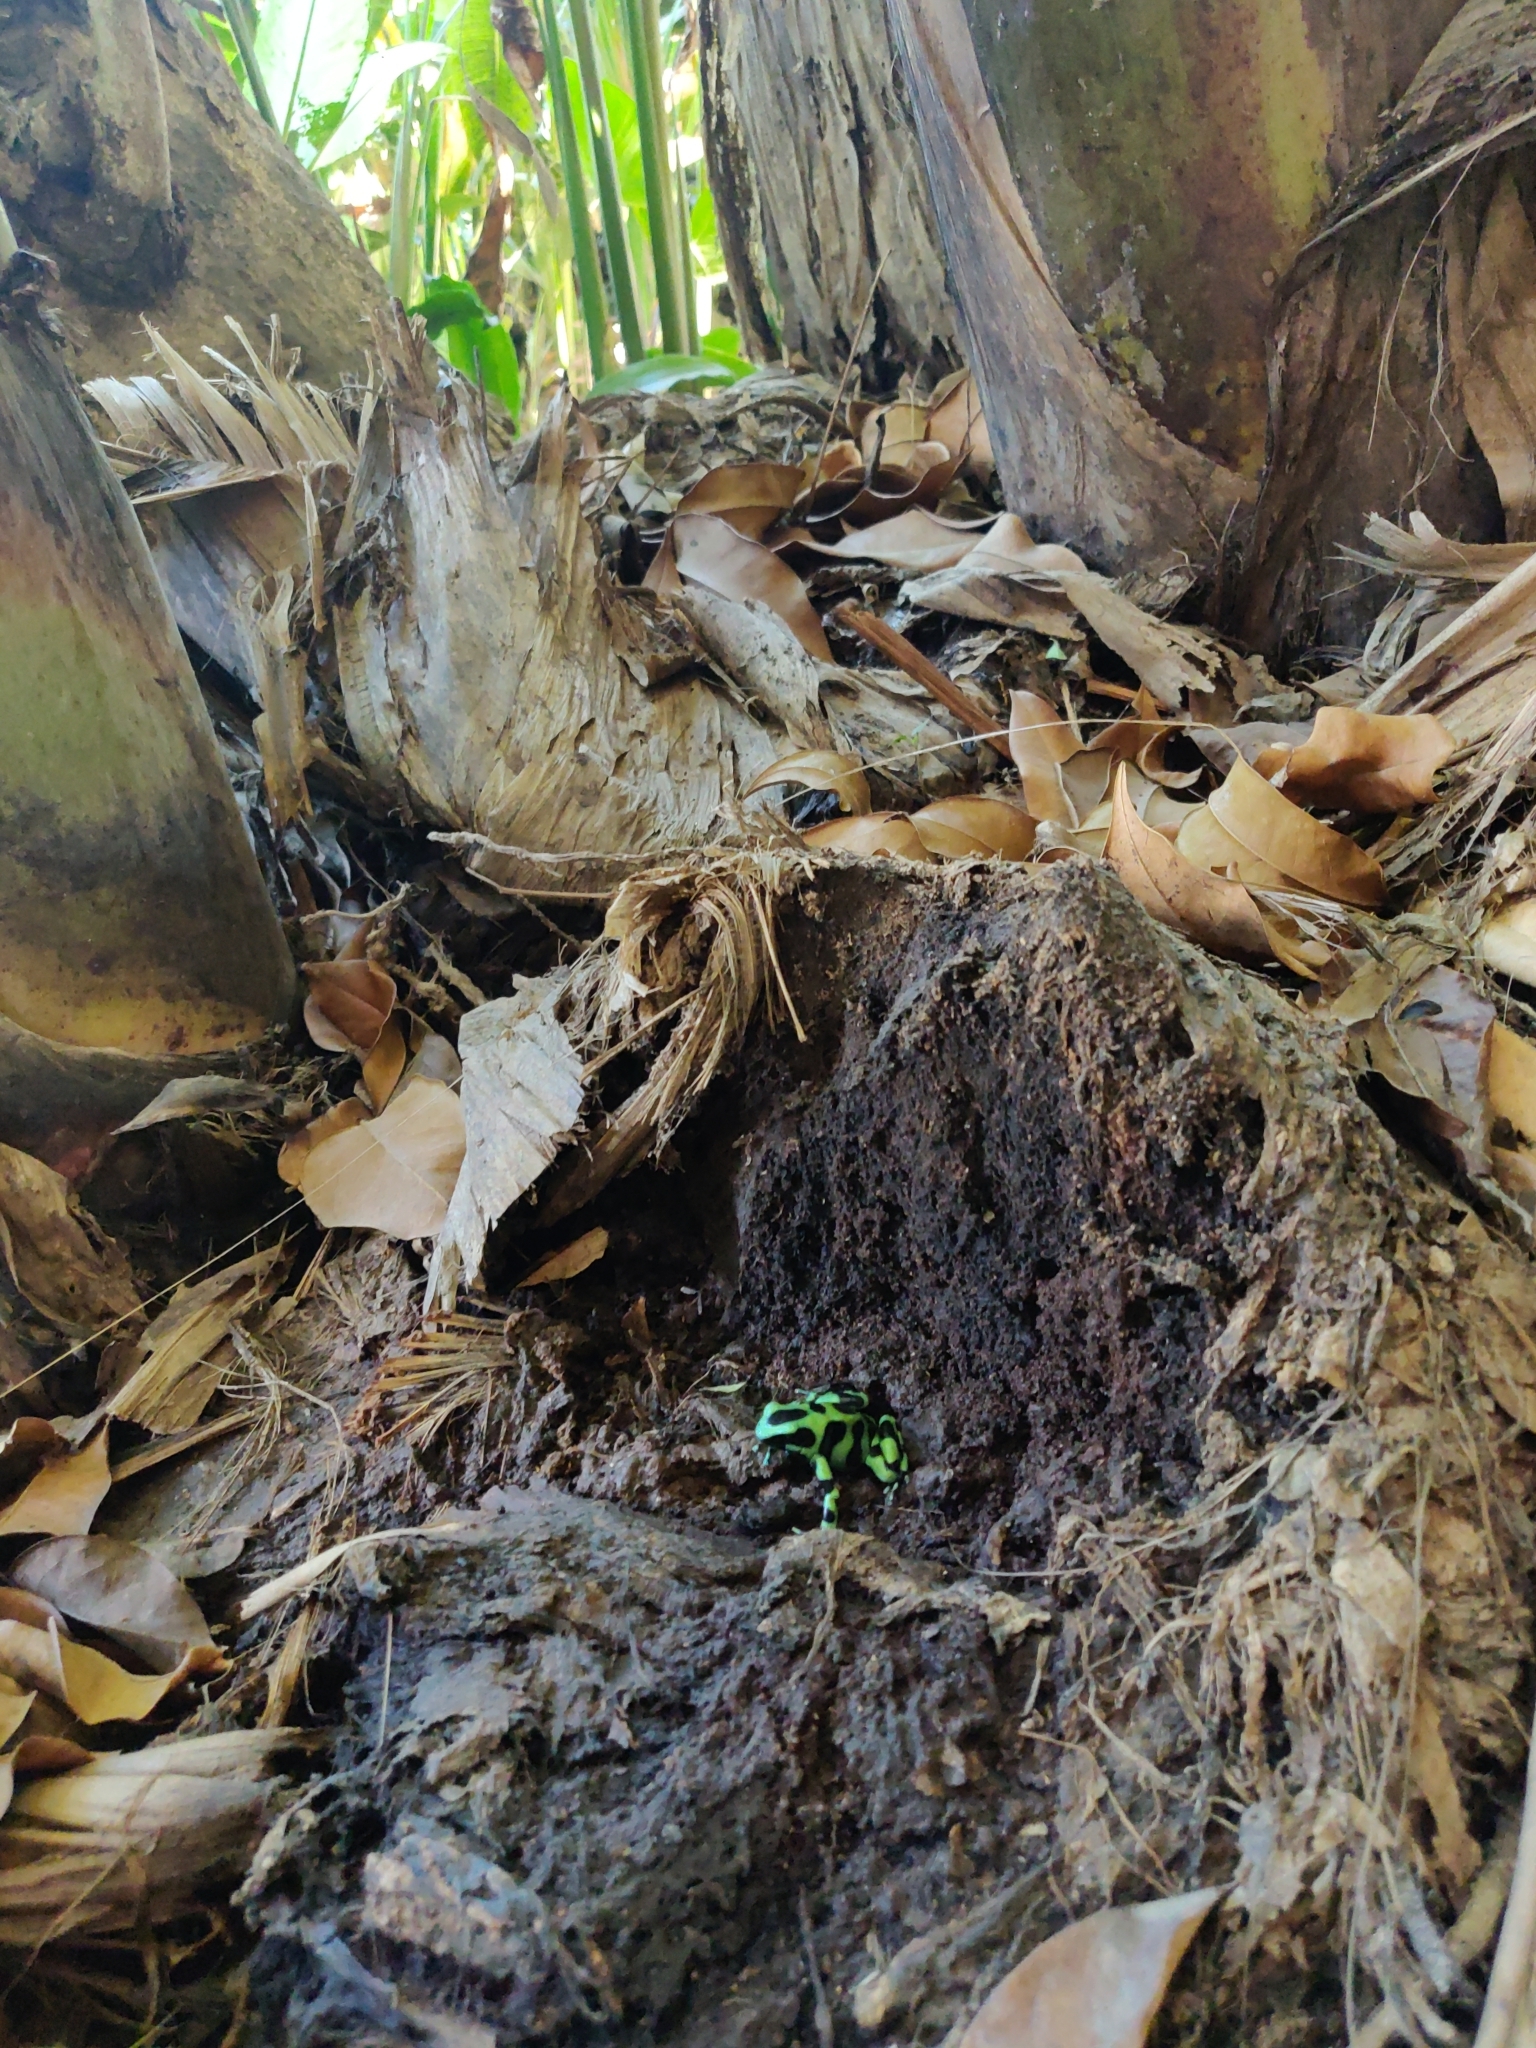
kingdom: Animalia
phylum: Chordata
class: Amphibia
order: Anura
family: Dendrobatidae
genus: Dendrobates
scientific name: Dendrobates auratus
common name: Green and black poison dart frog
